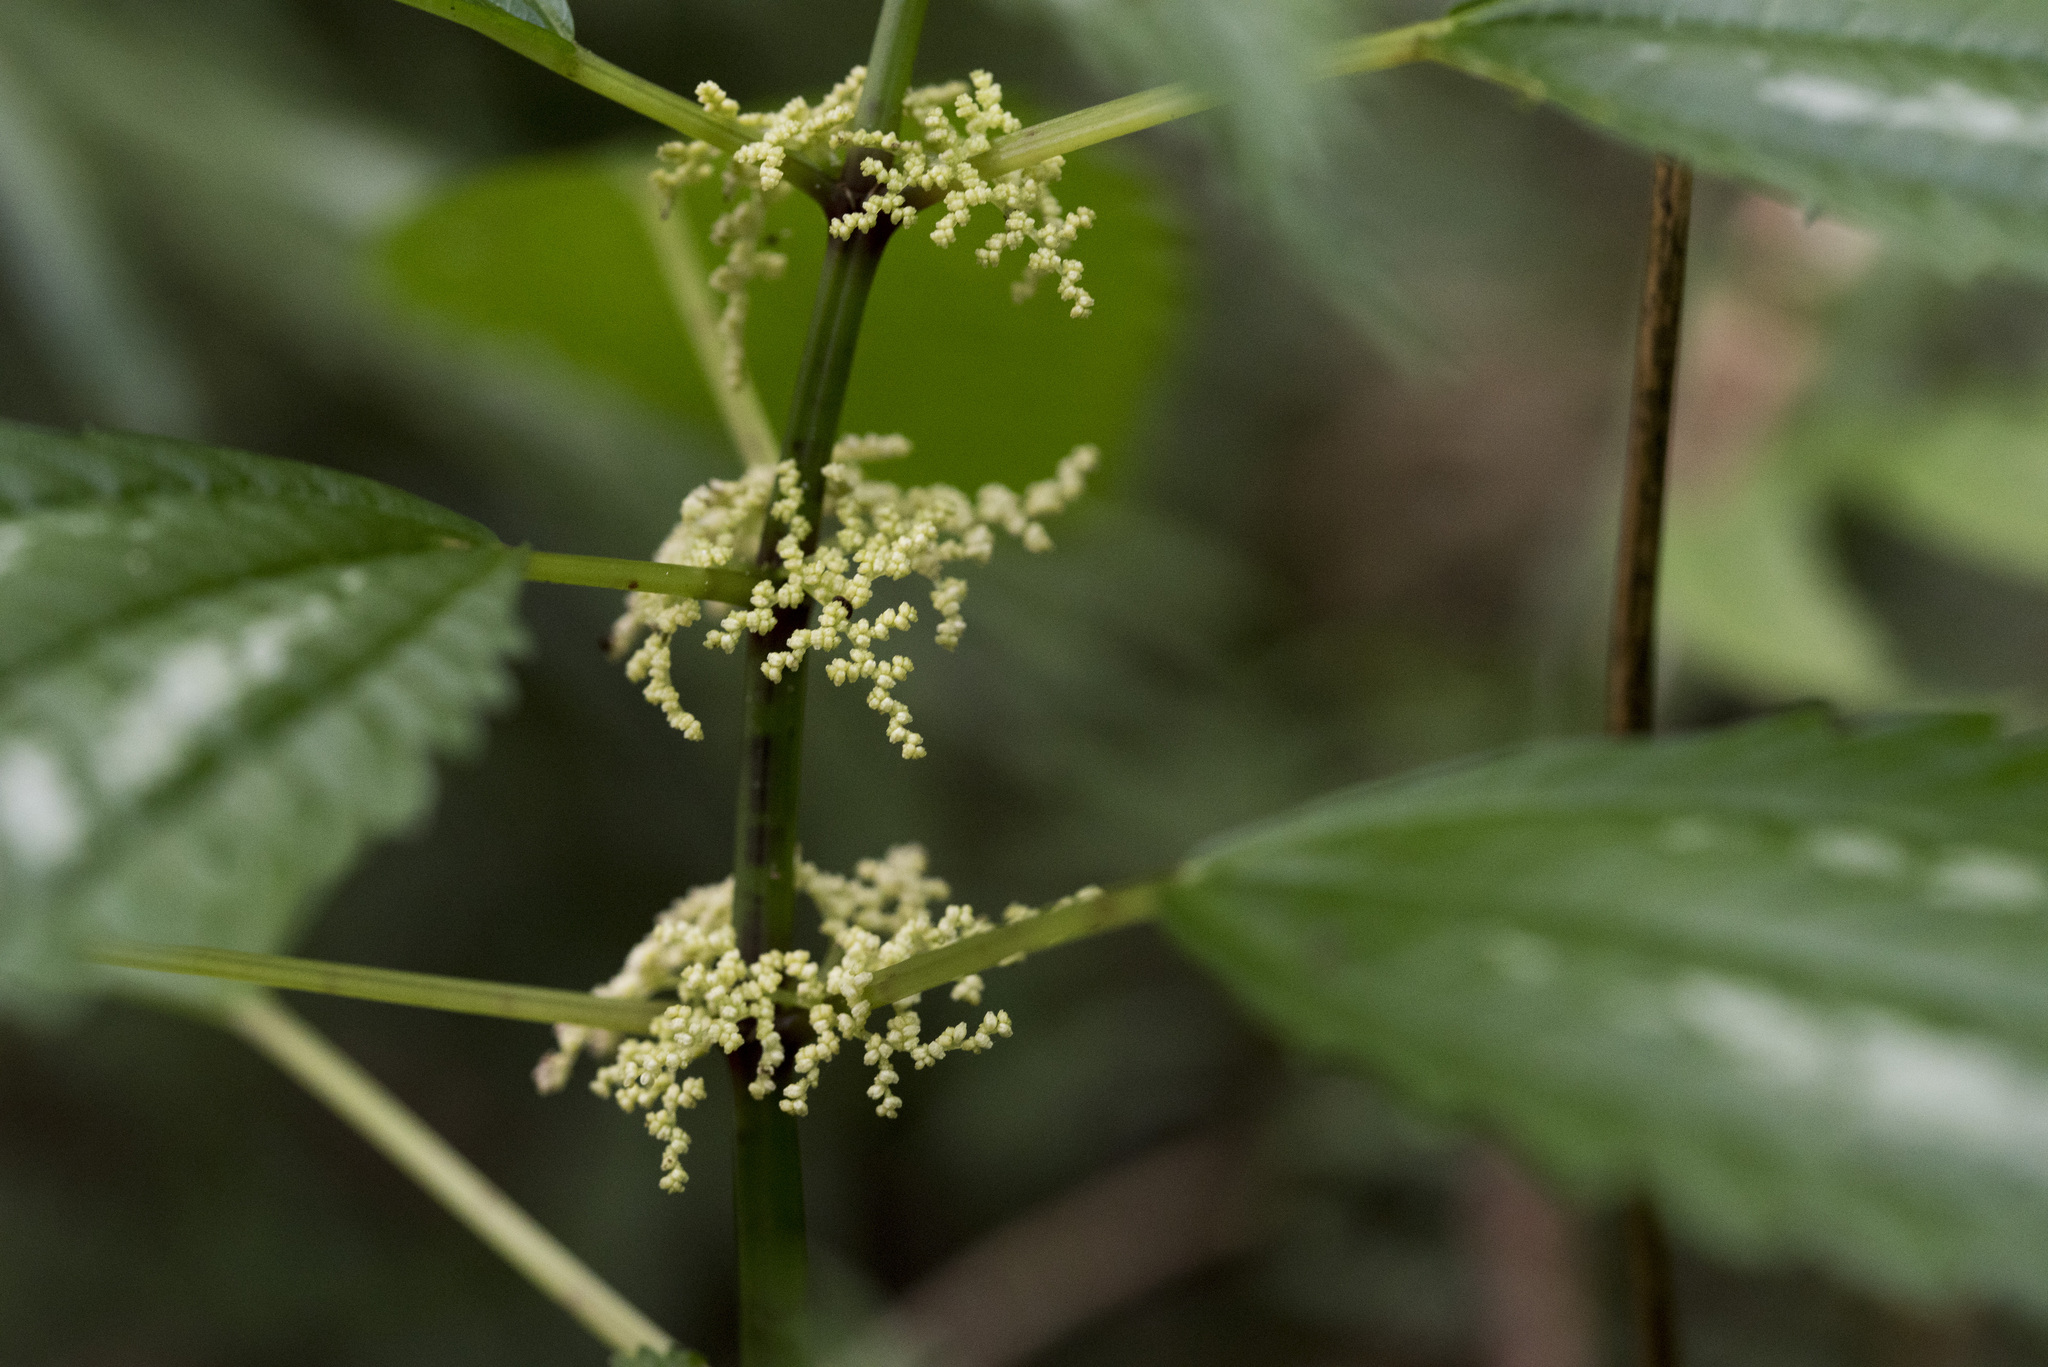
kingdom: Plantae
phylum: Tracheophyta
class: Magnoliopsida
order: Rosales
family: Urticaceae
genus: Pilea
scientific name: Pilea matsudae
